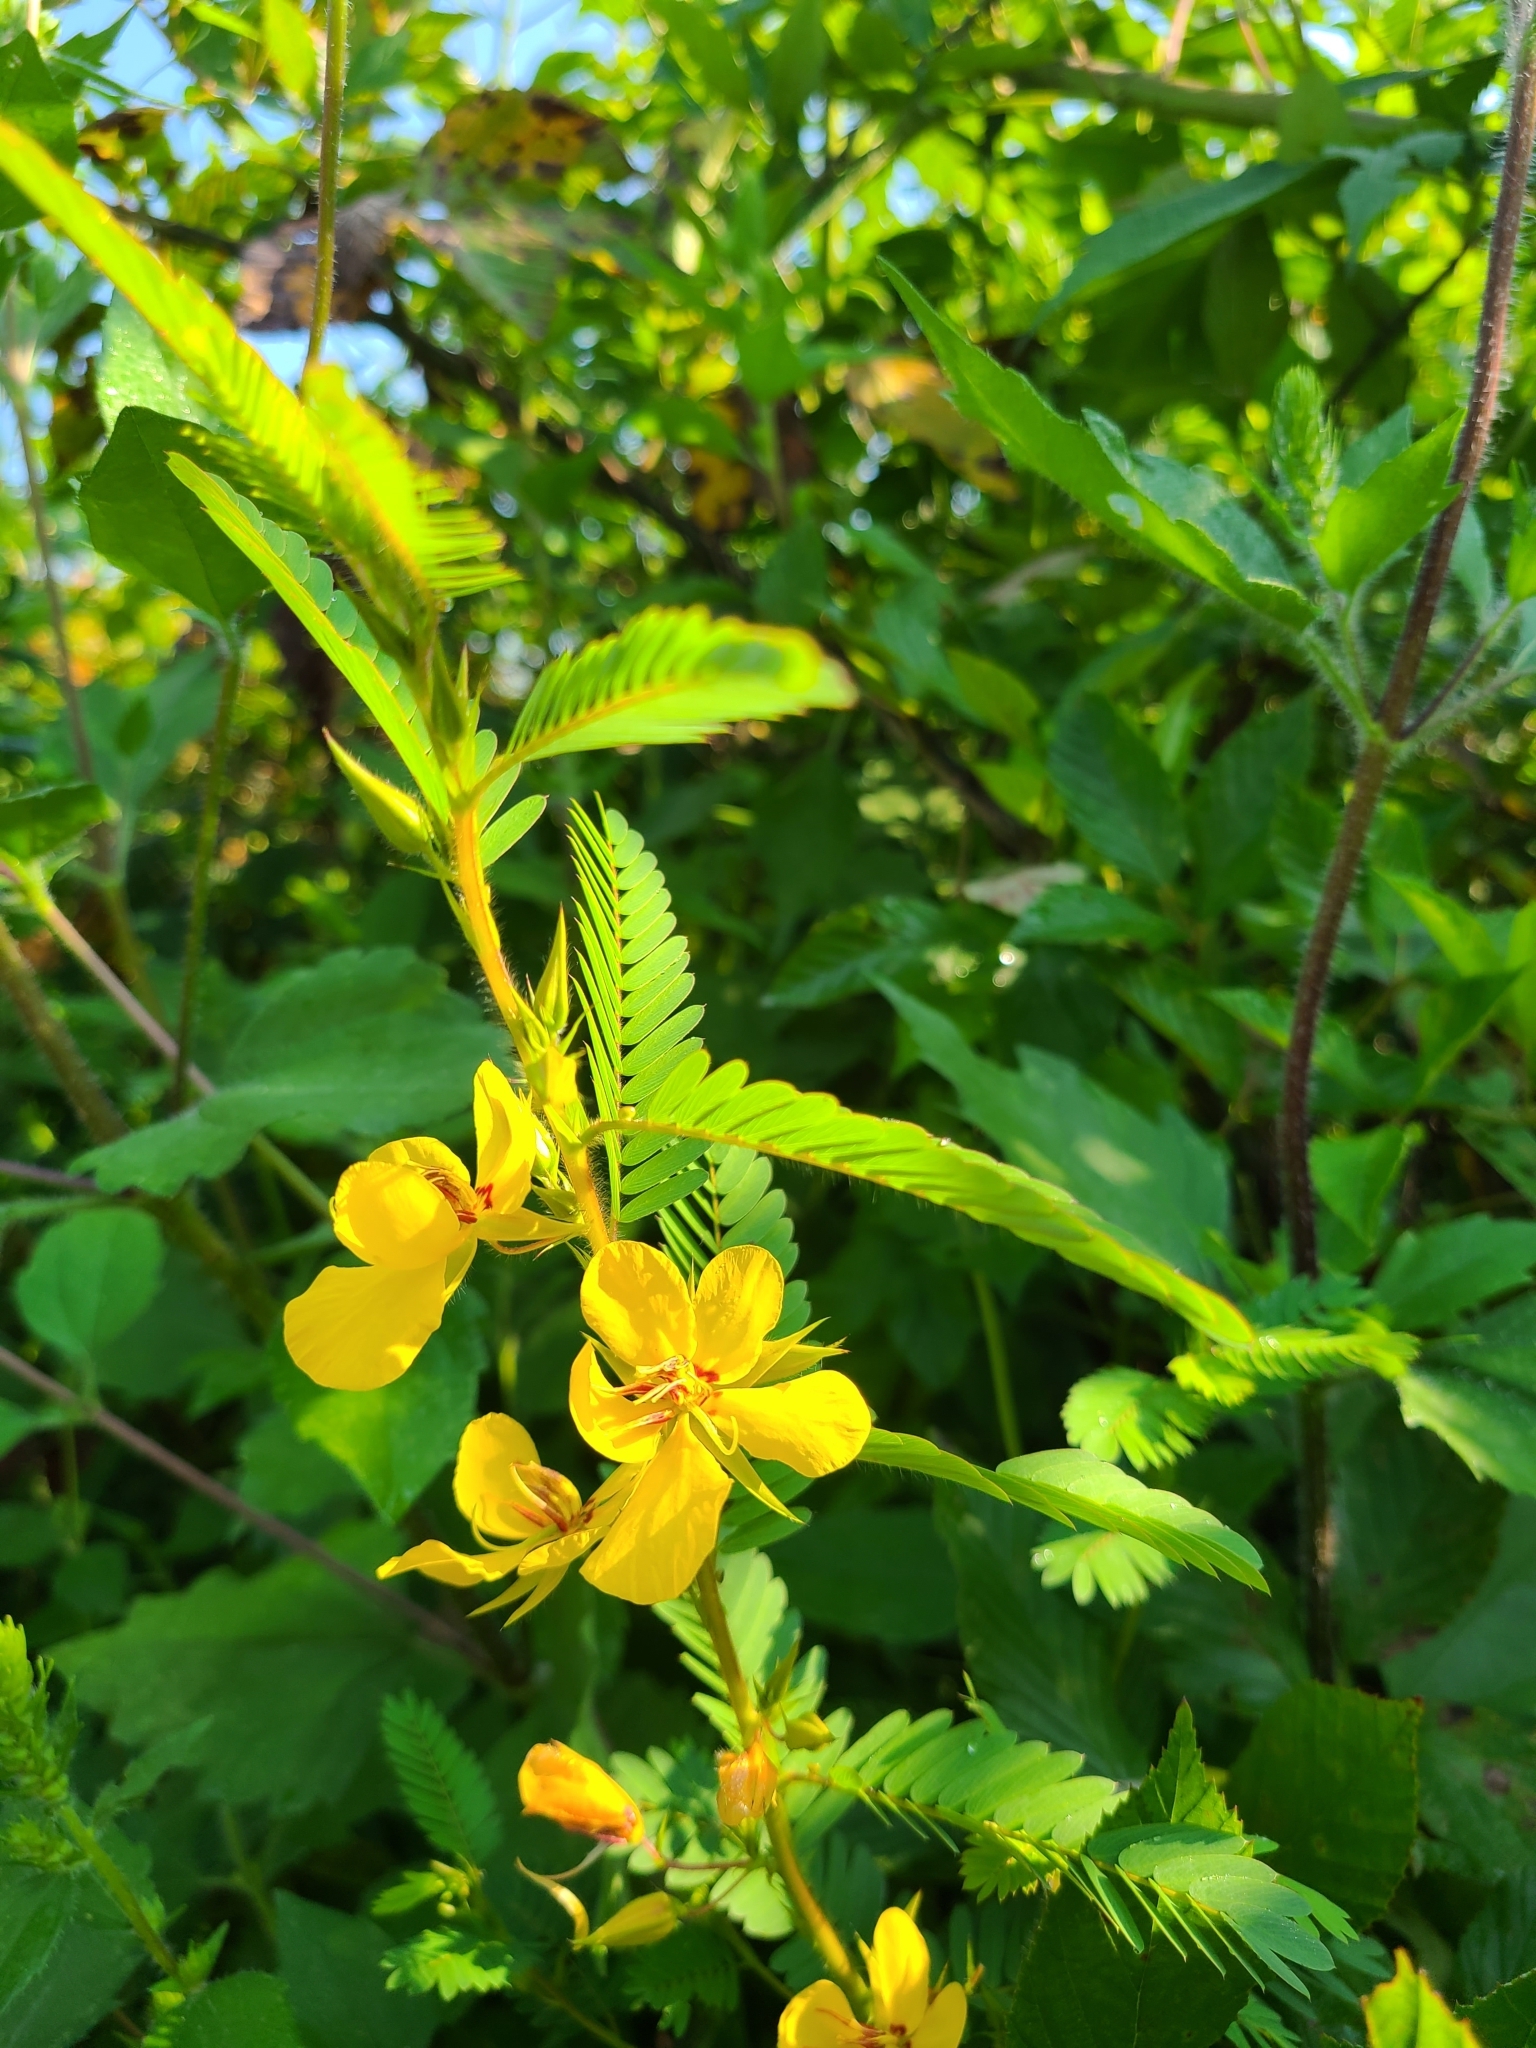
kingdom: Plantae
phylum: Tracheophyta
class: Magnoliopsida
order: Fabales
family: Fabaceae
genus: Chamaecrista
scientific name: Chamaecrista fasciculata
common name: Golden cassia
